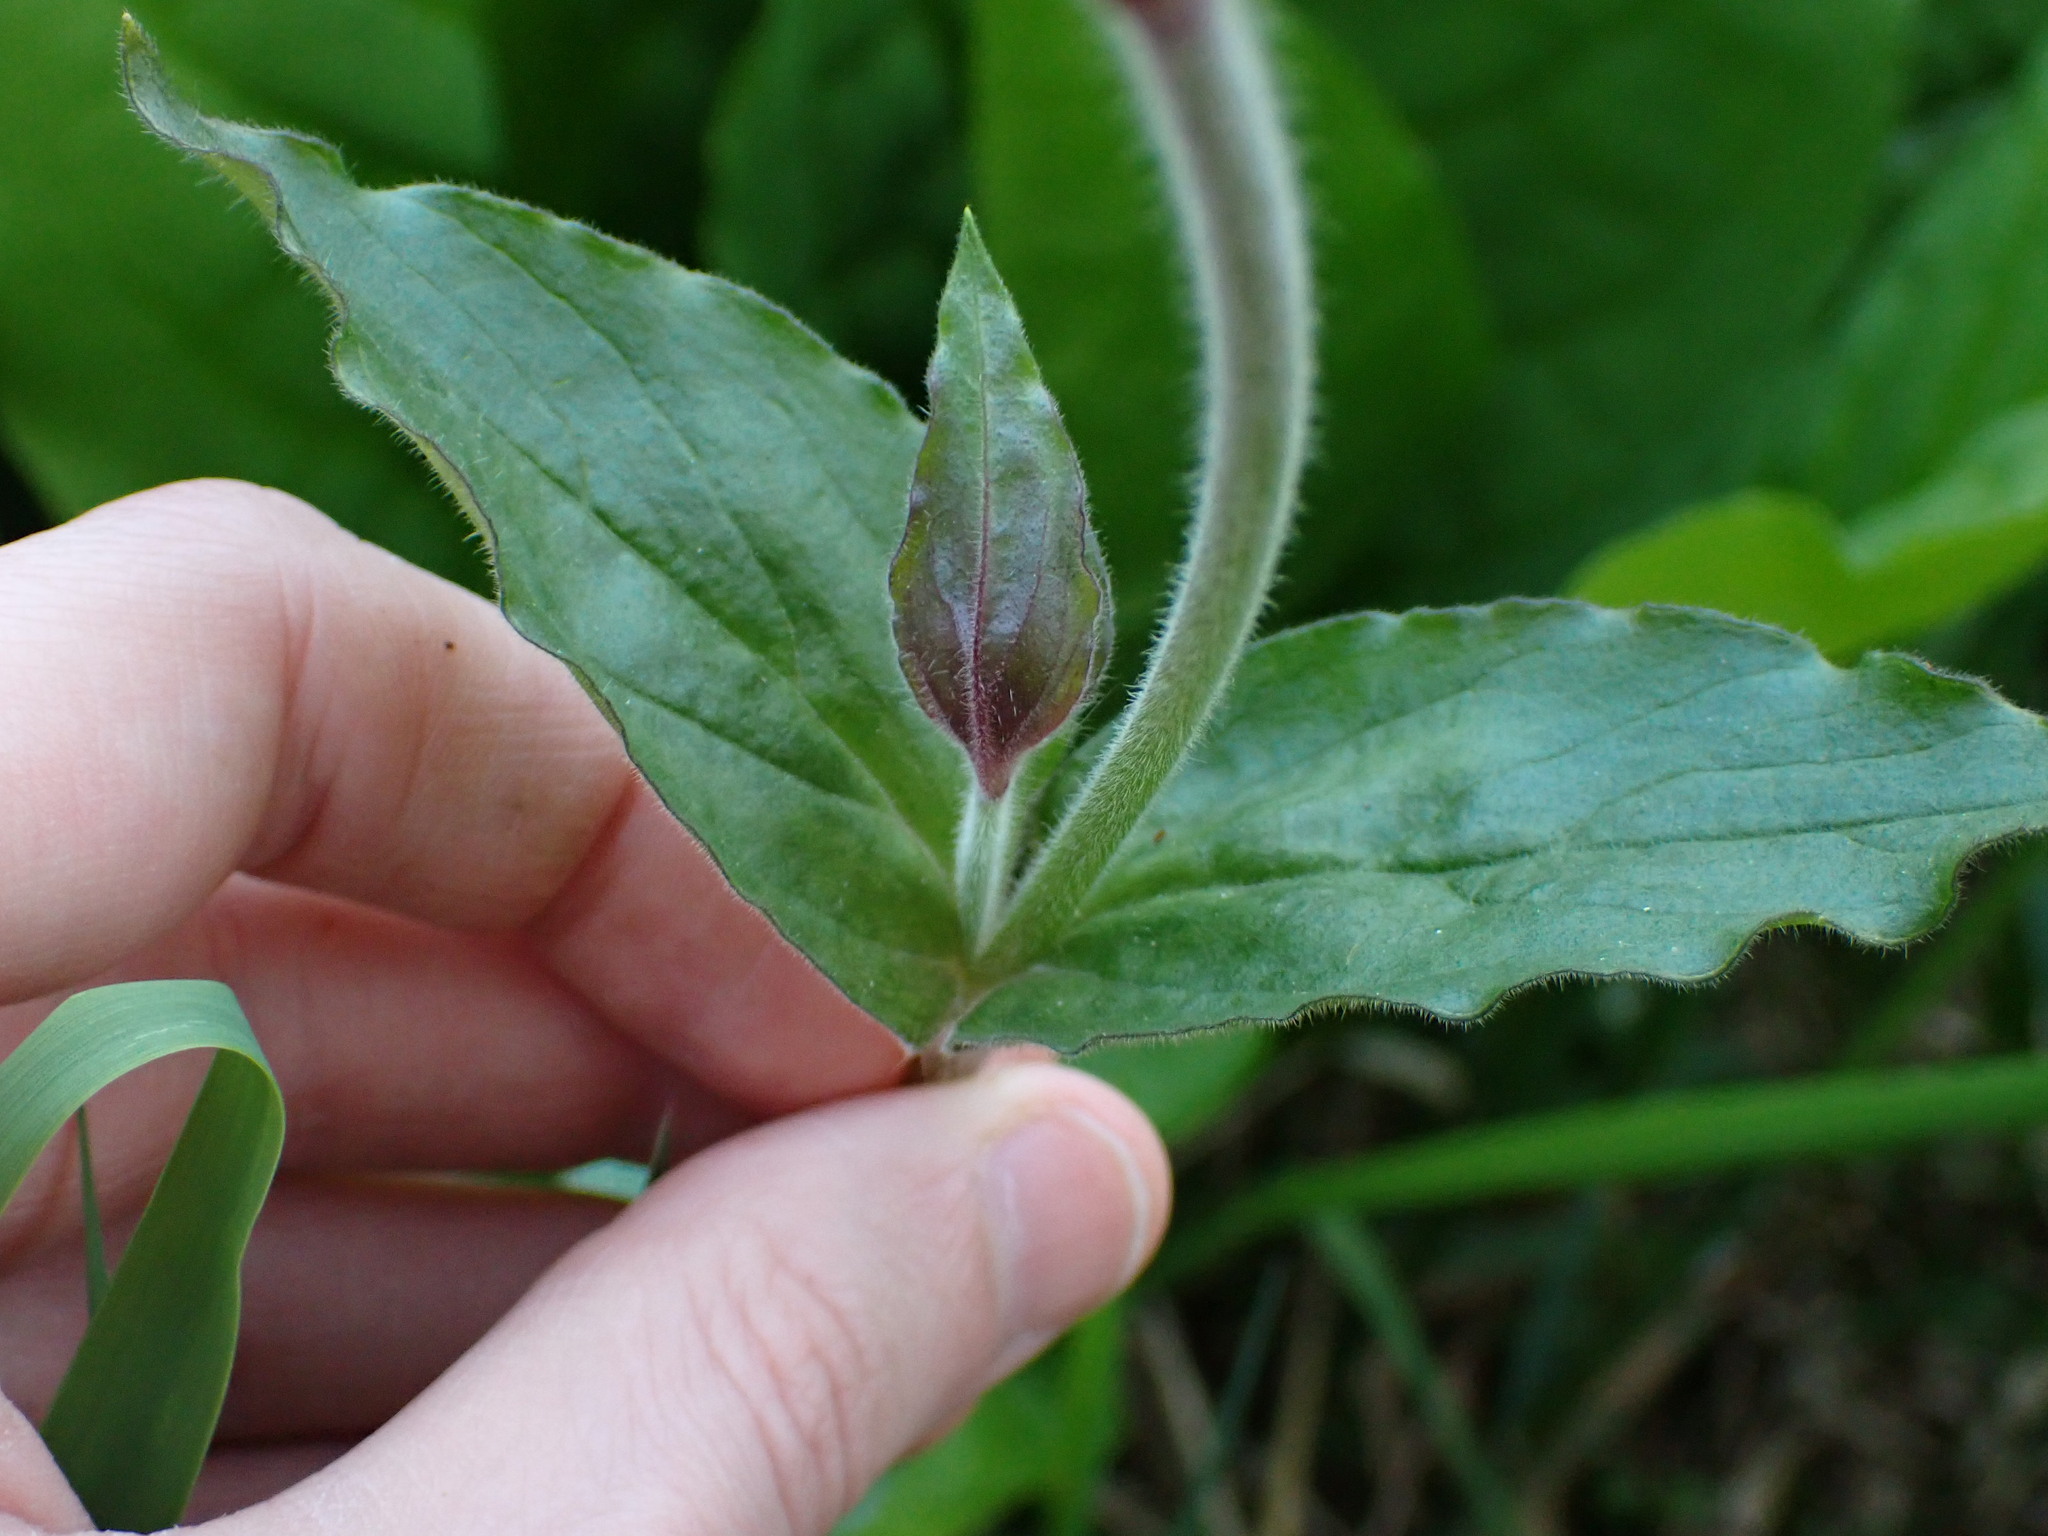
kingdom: Plantae
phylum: Tracheophyta
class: Magnoliopsida
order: Caryophyllales
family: Caryophyllaceae
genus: Silene
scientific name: Silene dioica
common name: Red campion
